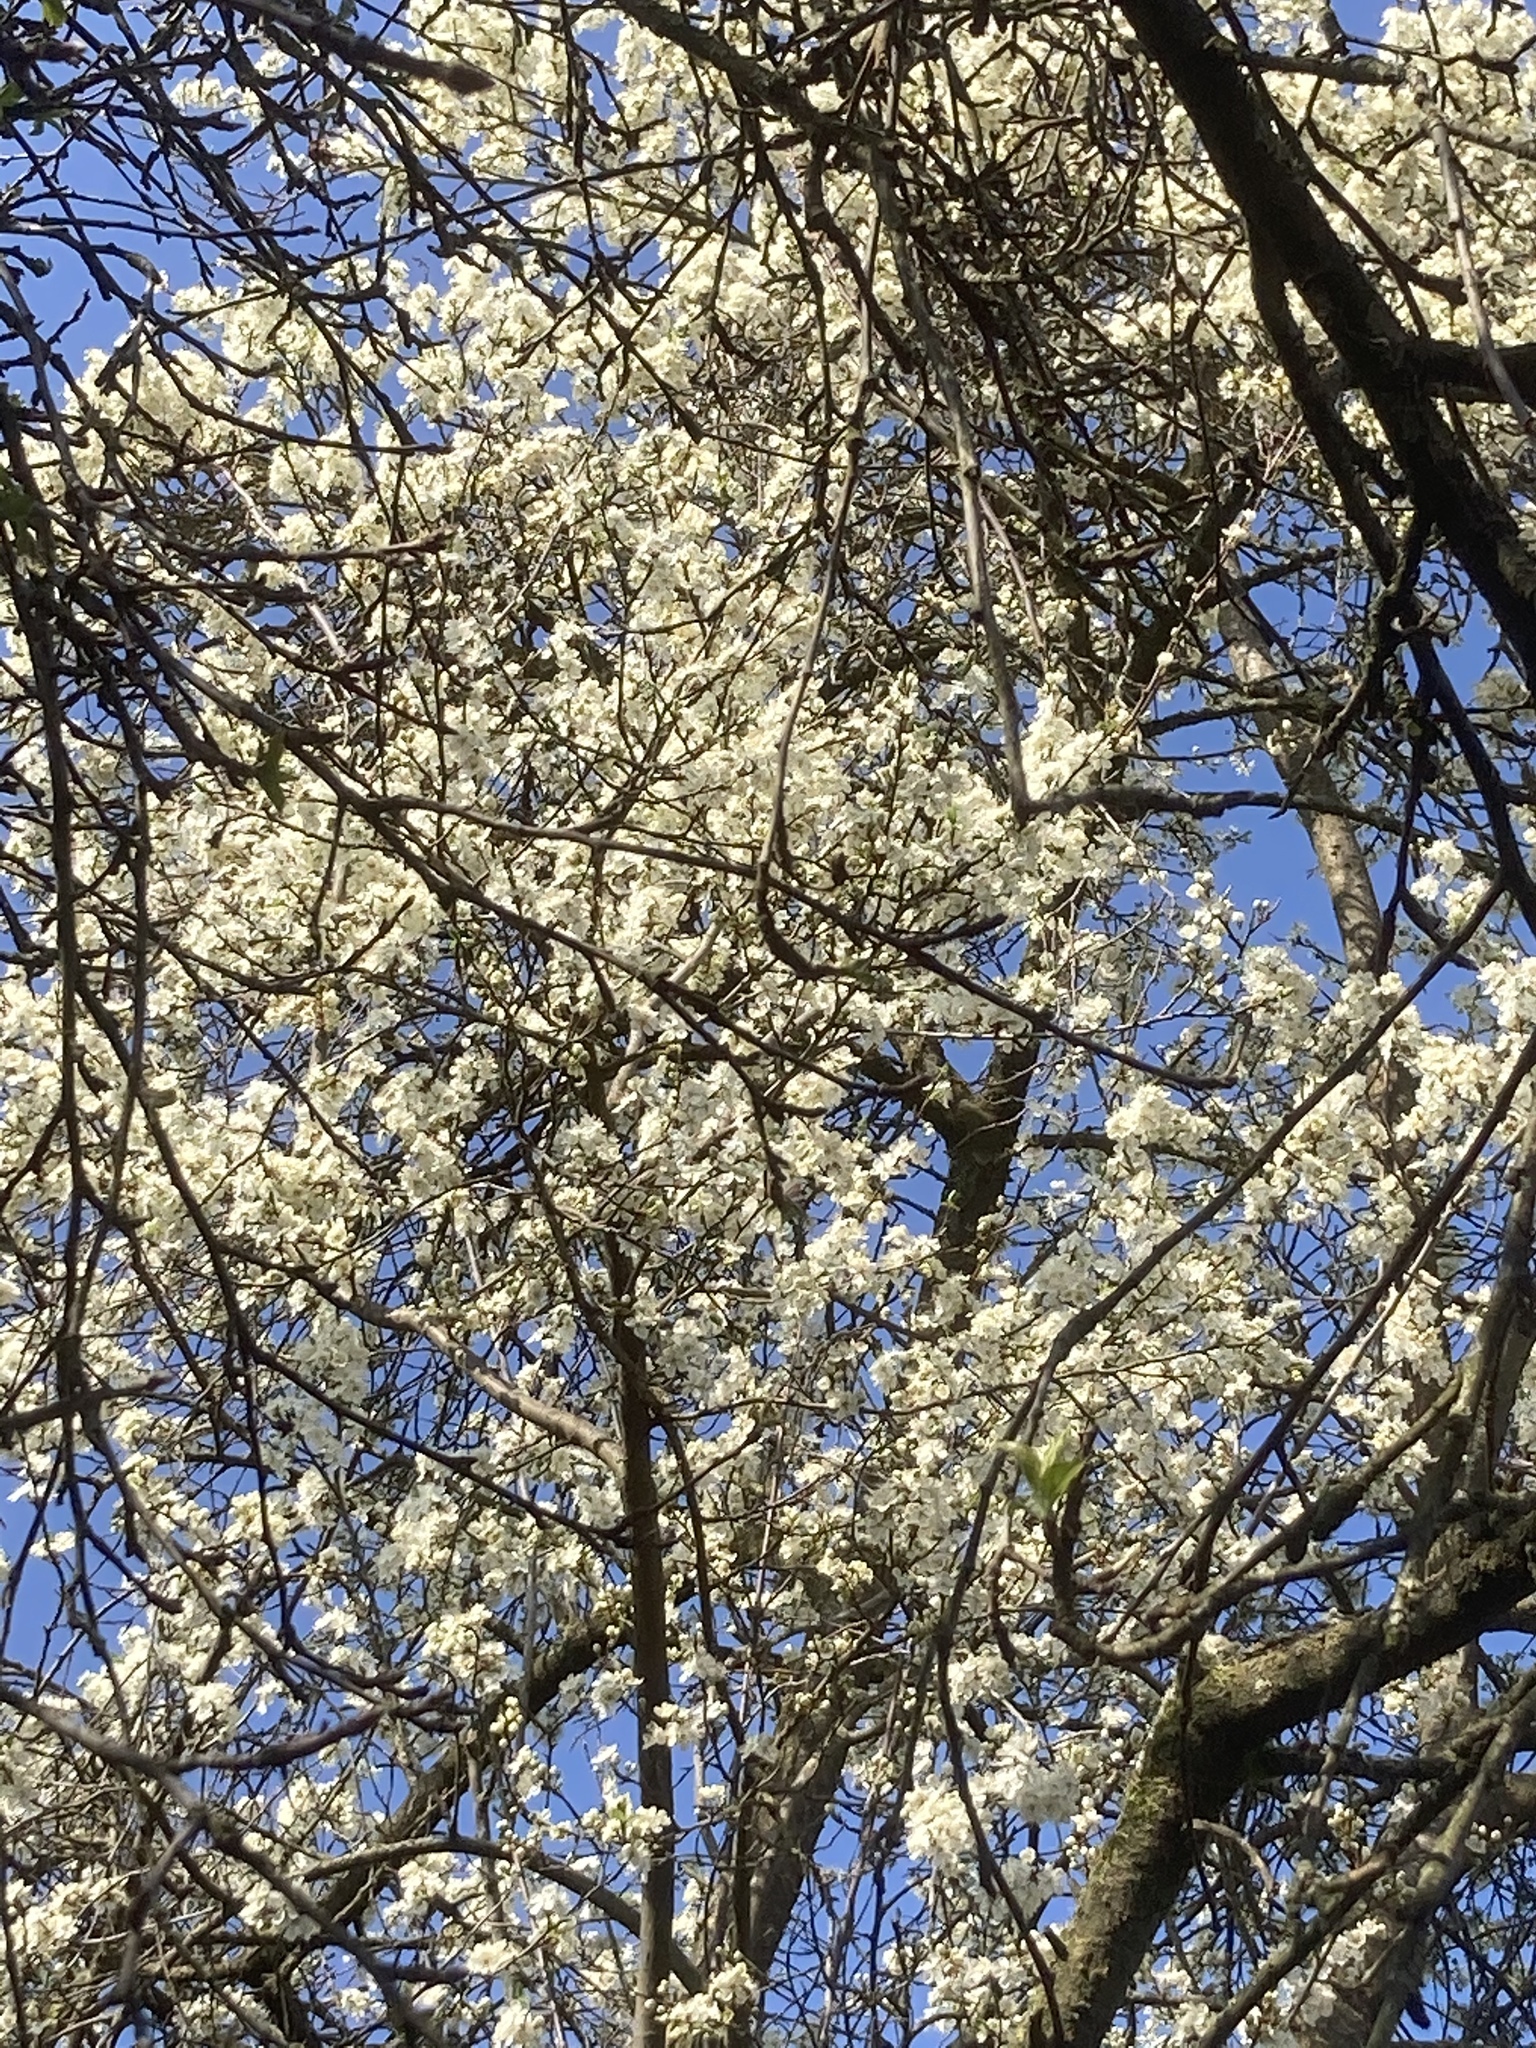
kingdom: Plantae
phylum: Tracheophyta
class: Magnoliopsida
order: Rosales
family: Rosaceae
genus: Prunus
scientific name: Prunus cerasifera
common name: Cherry plum
